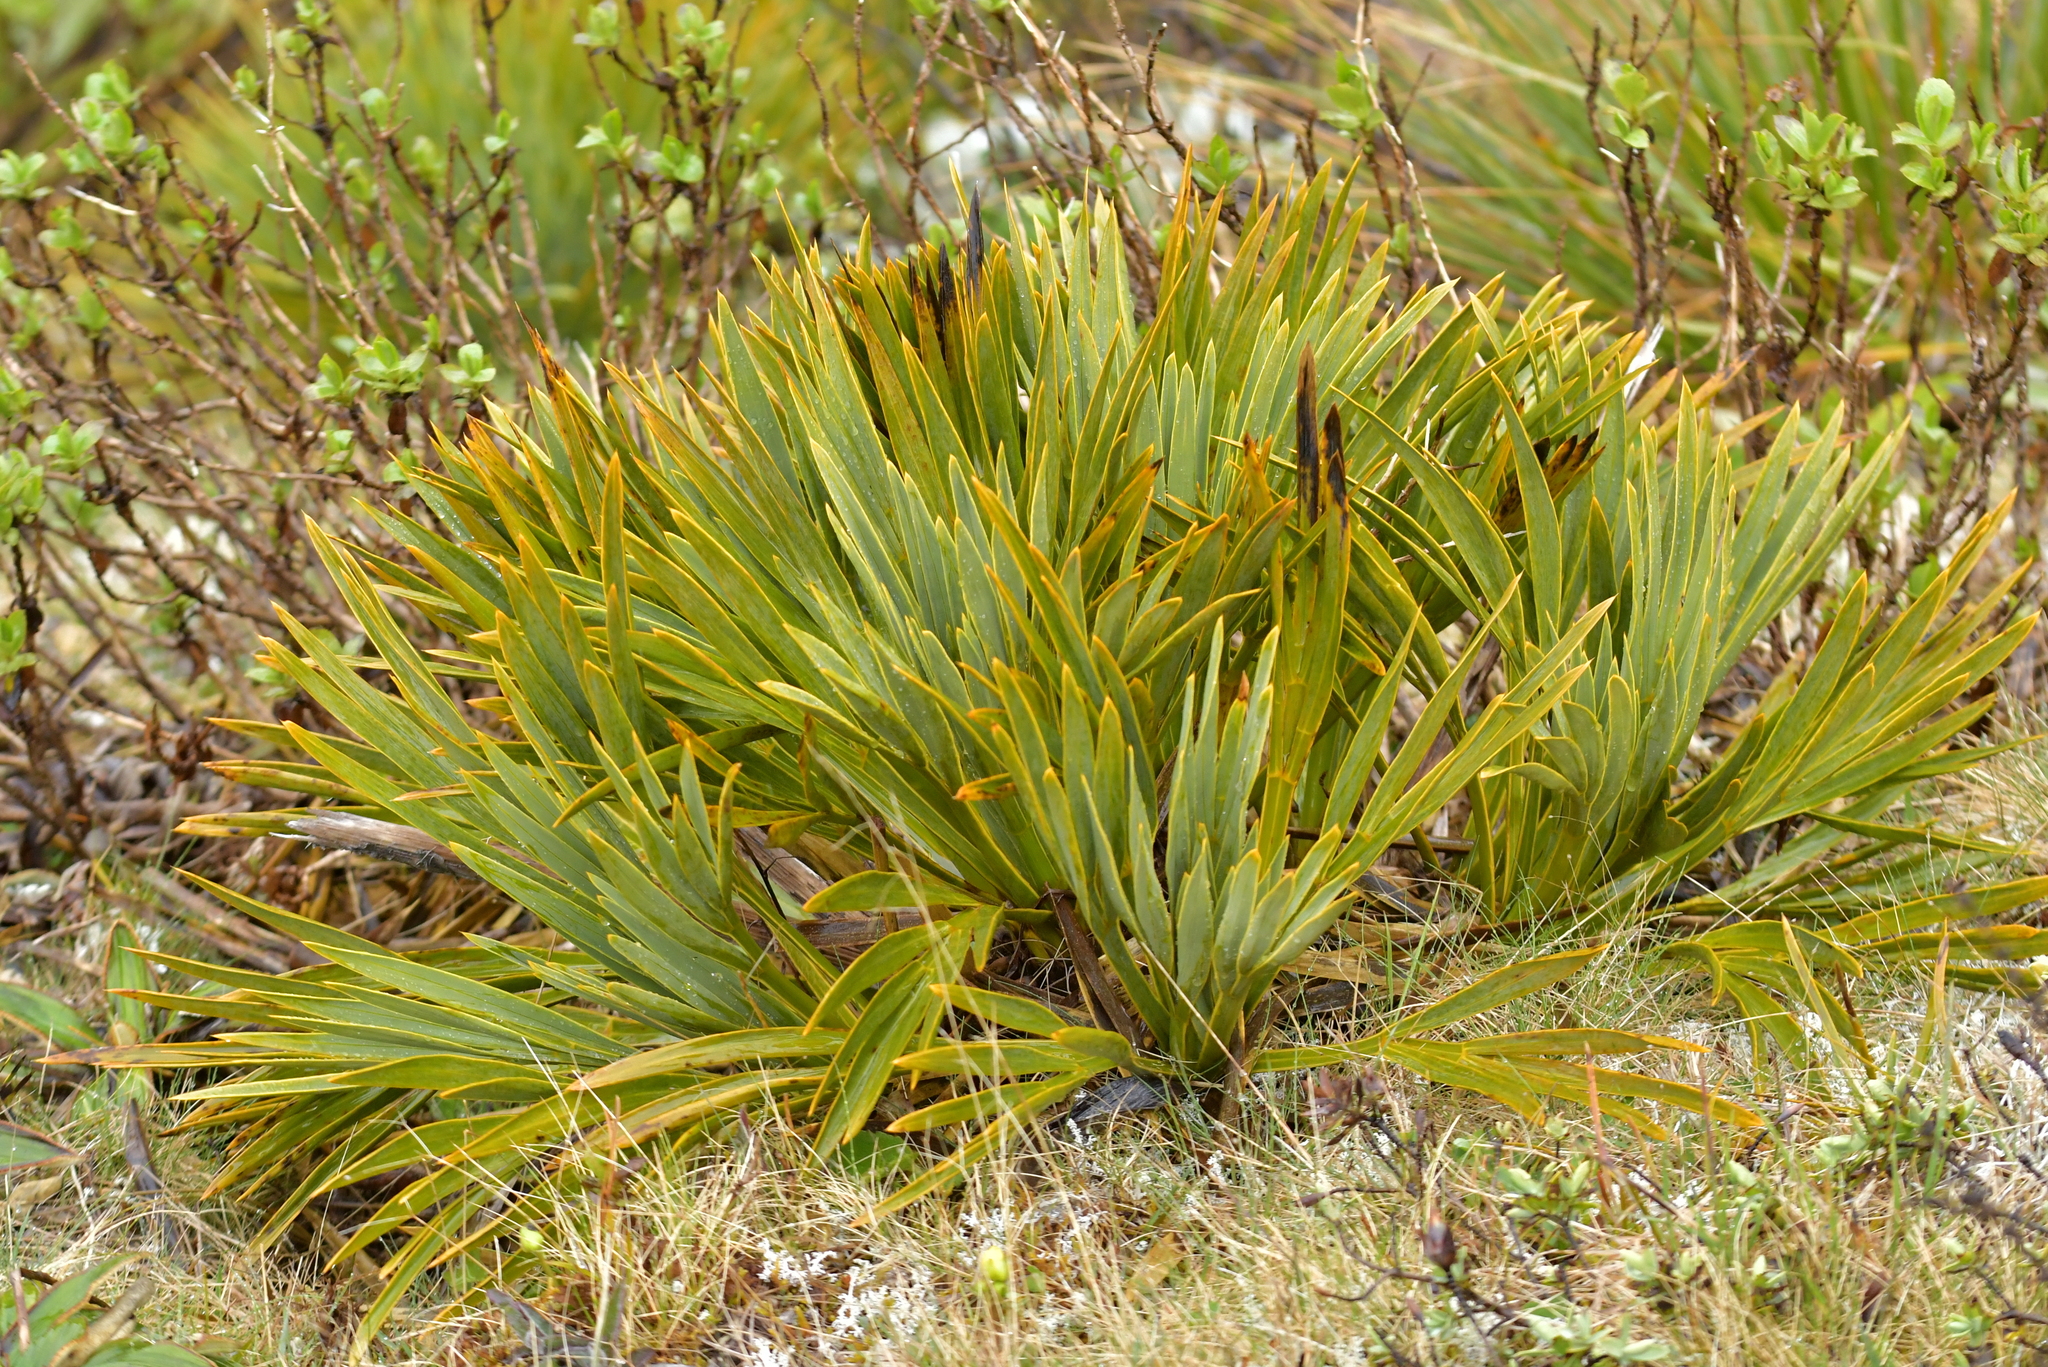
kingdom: Plantae
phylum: Tracheophyta
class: Magnoliopsida
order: Apiales
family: Apiaceae
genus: Aciphylla
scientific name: Aciphylla ferox
